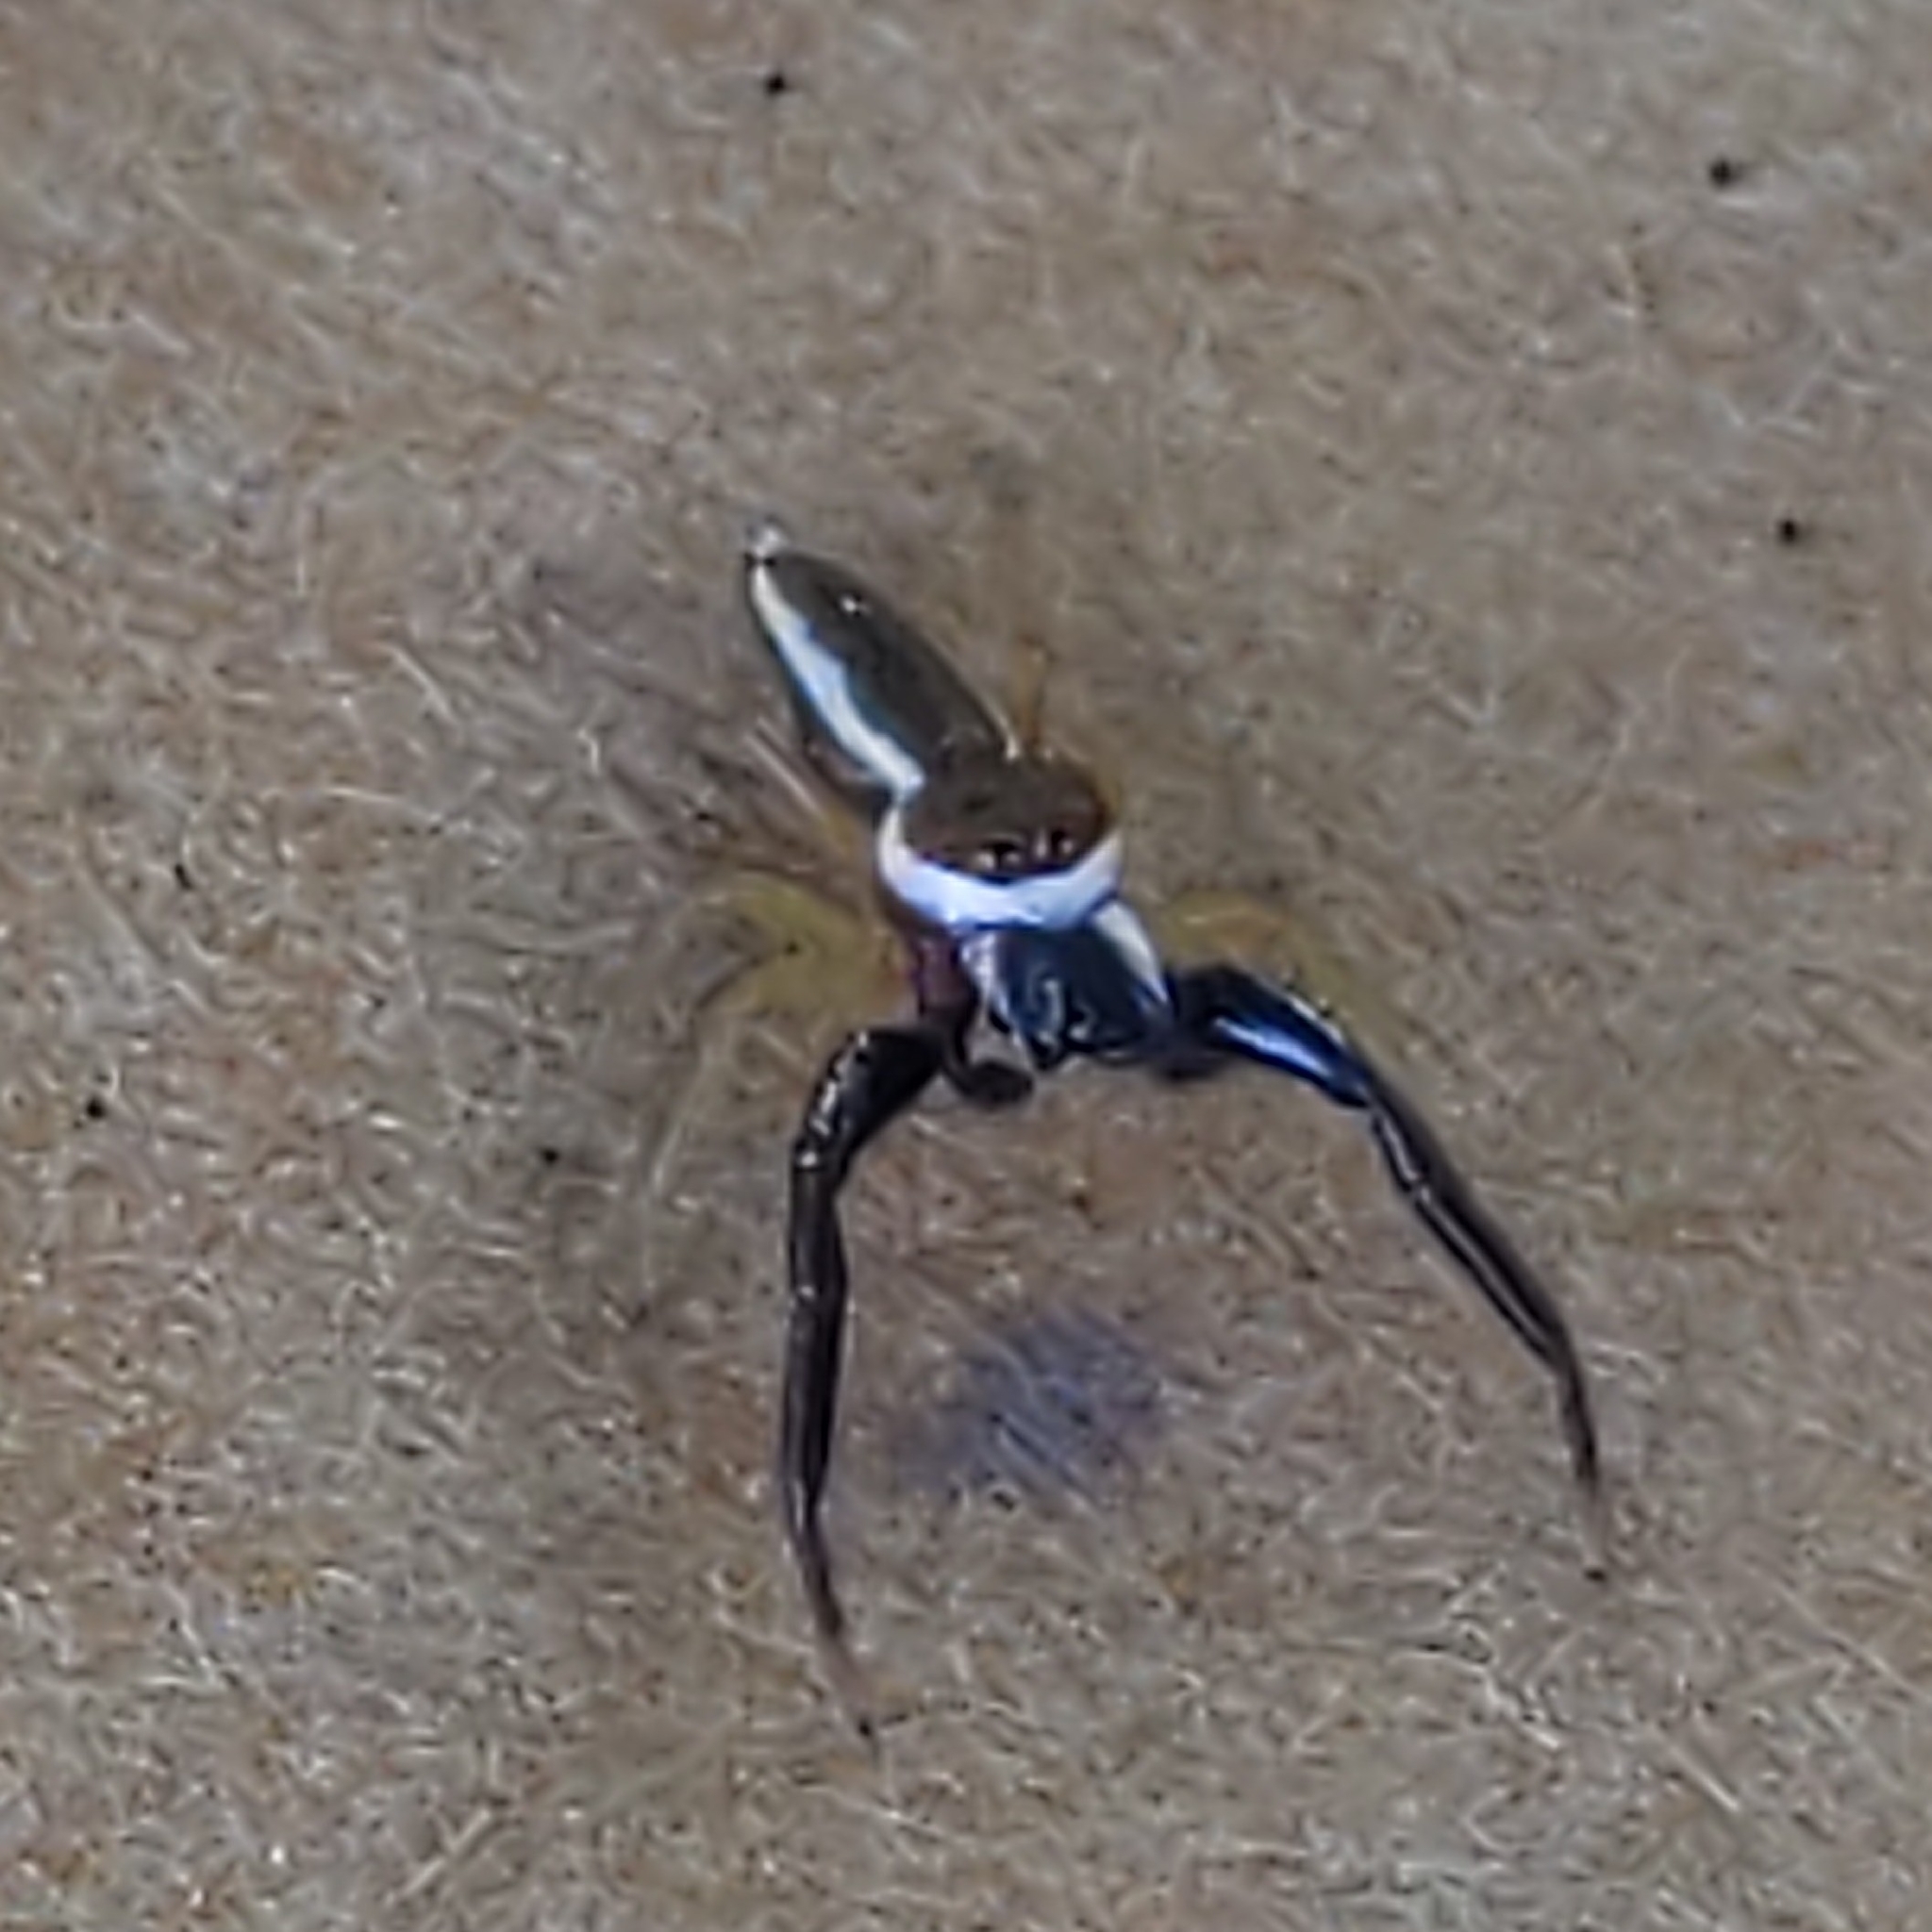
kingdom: Animalia
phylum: Arthropoda
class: Arachnida
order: Araneae
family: Salticidae
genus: Hentzia
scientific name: Hentzia palmarum
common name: Common hentz jumping spider
